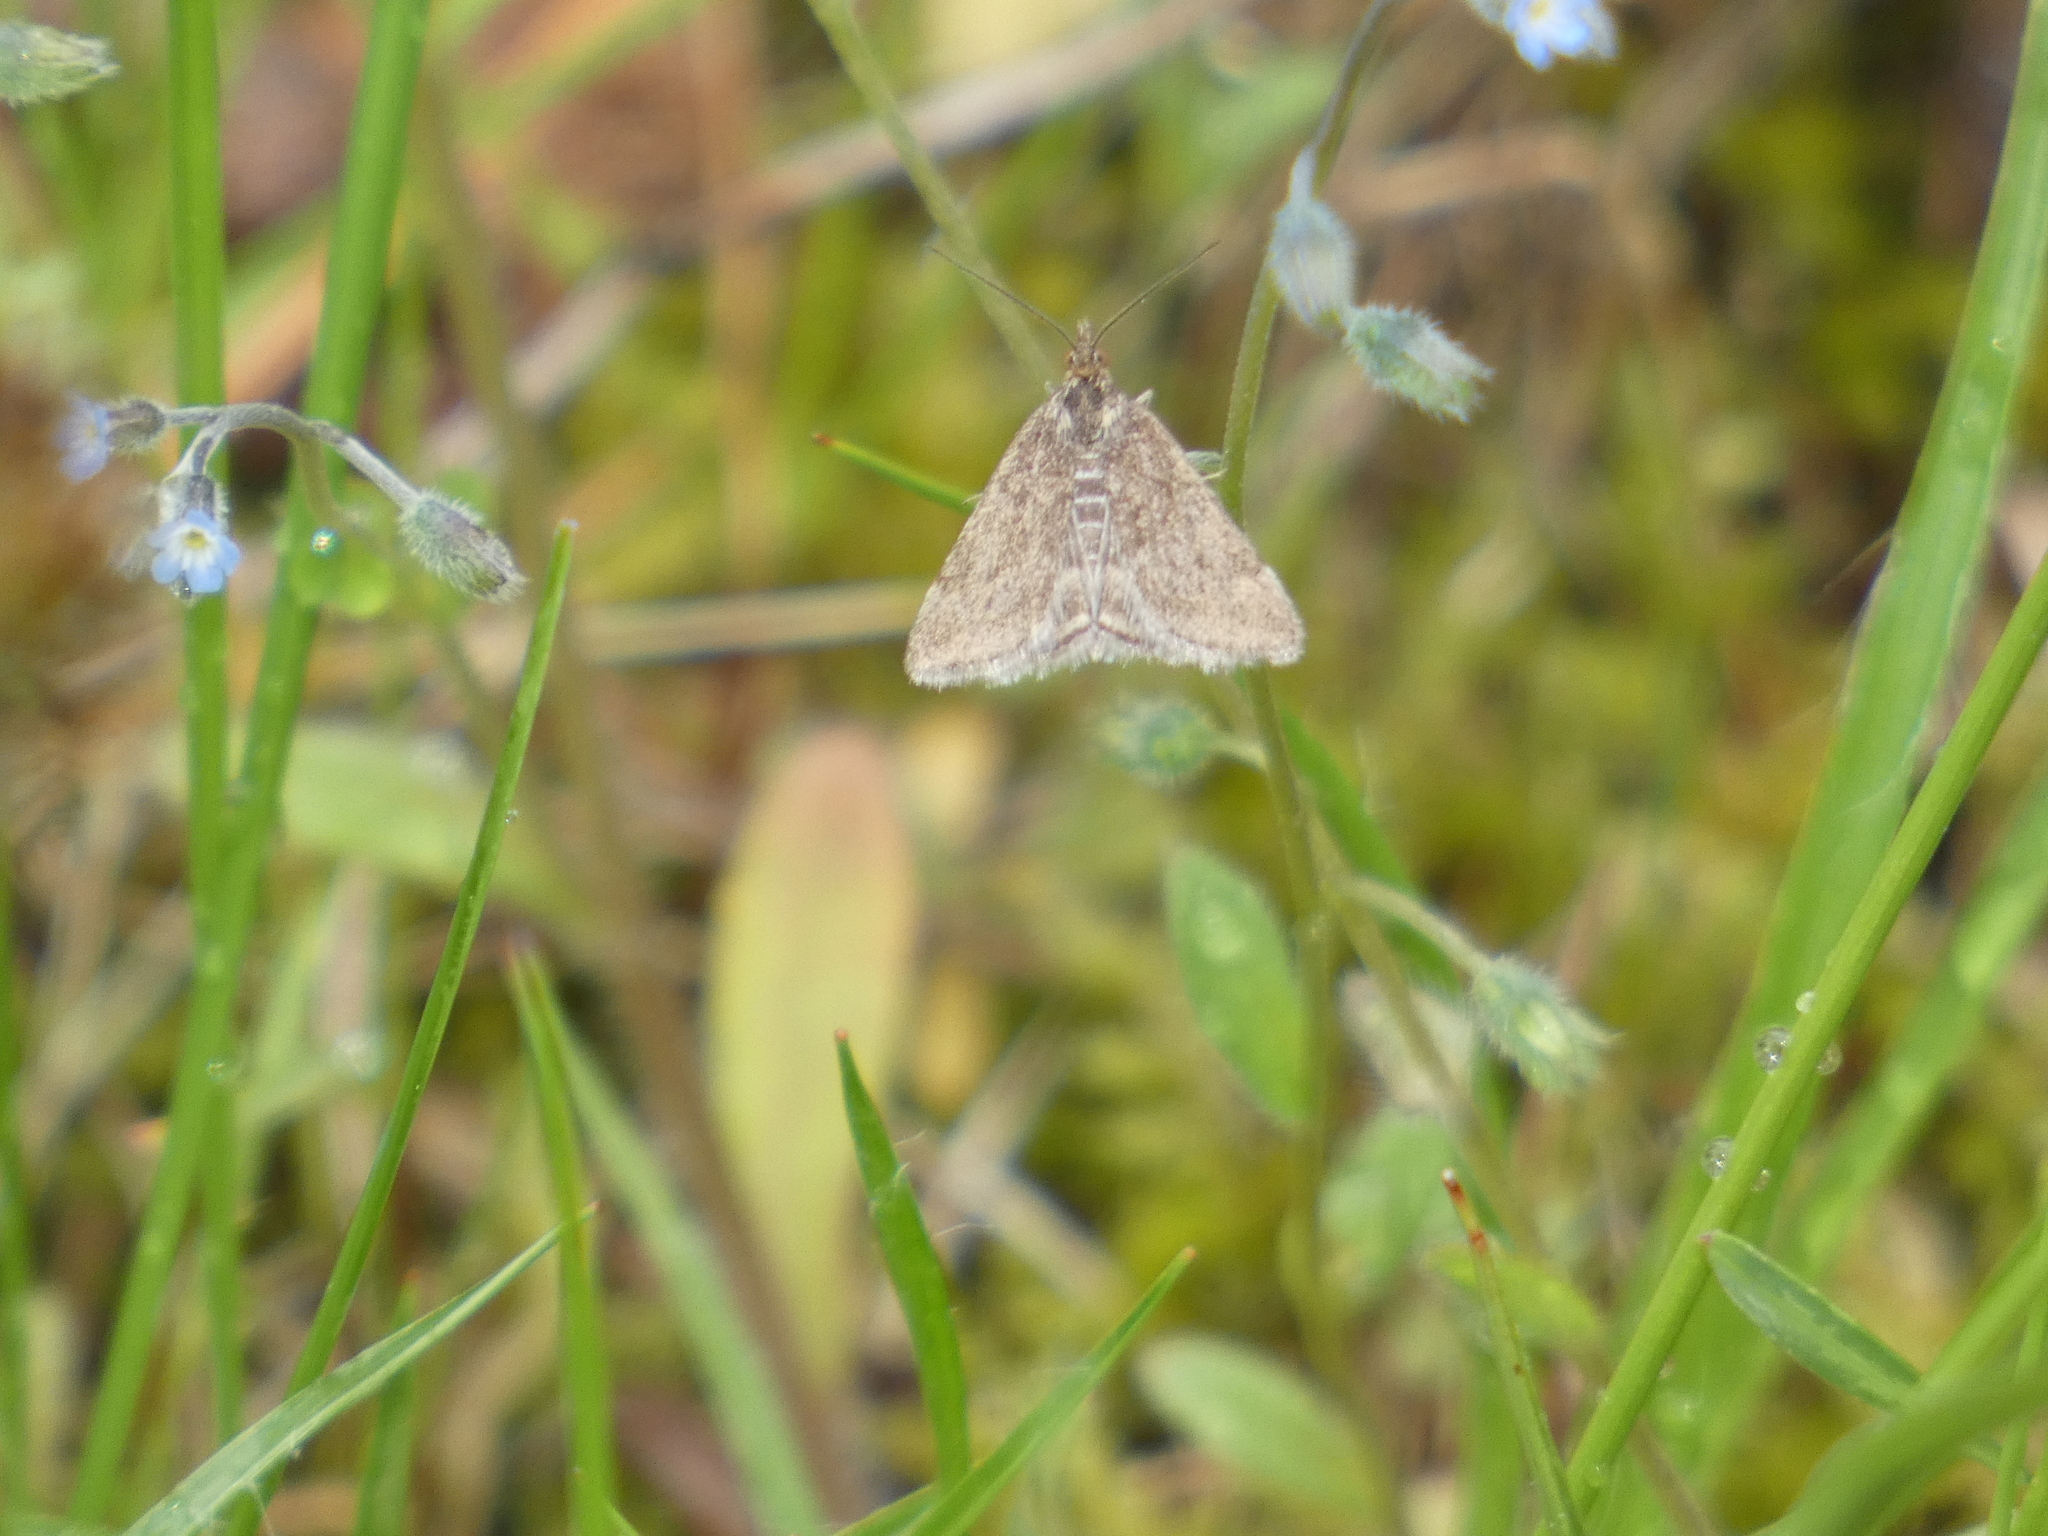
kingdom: Animalia
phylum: Arthropoda
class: Insecta
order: Lepidoptera
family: Crambidae
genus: Pyrausta
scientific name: Pyrausta despicata
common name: Straw-barred pearl
